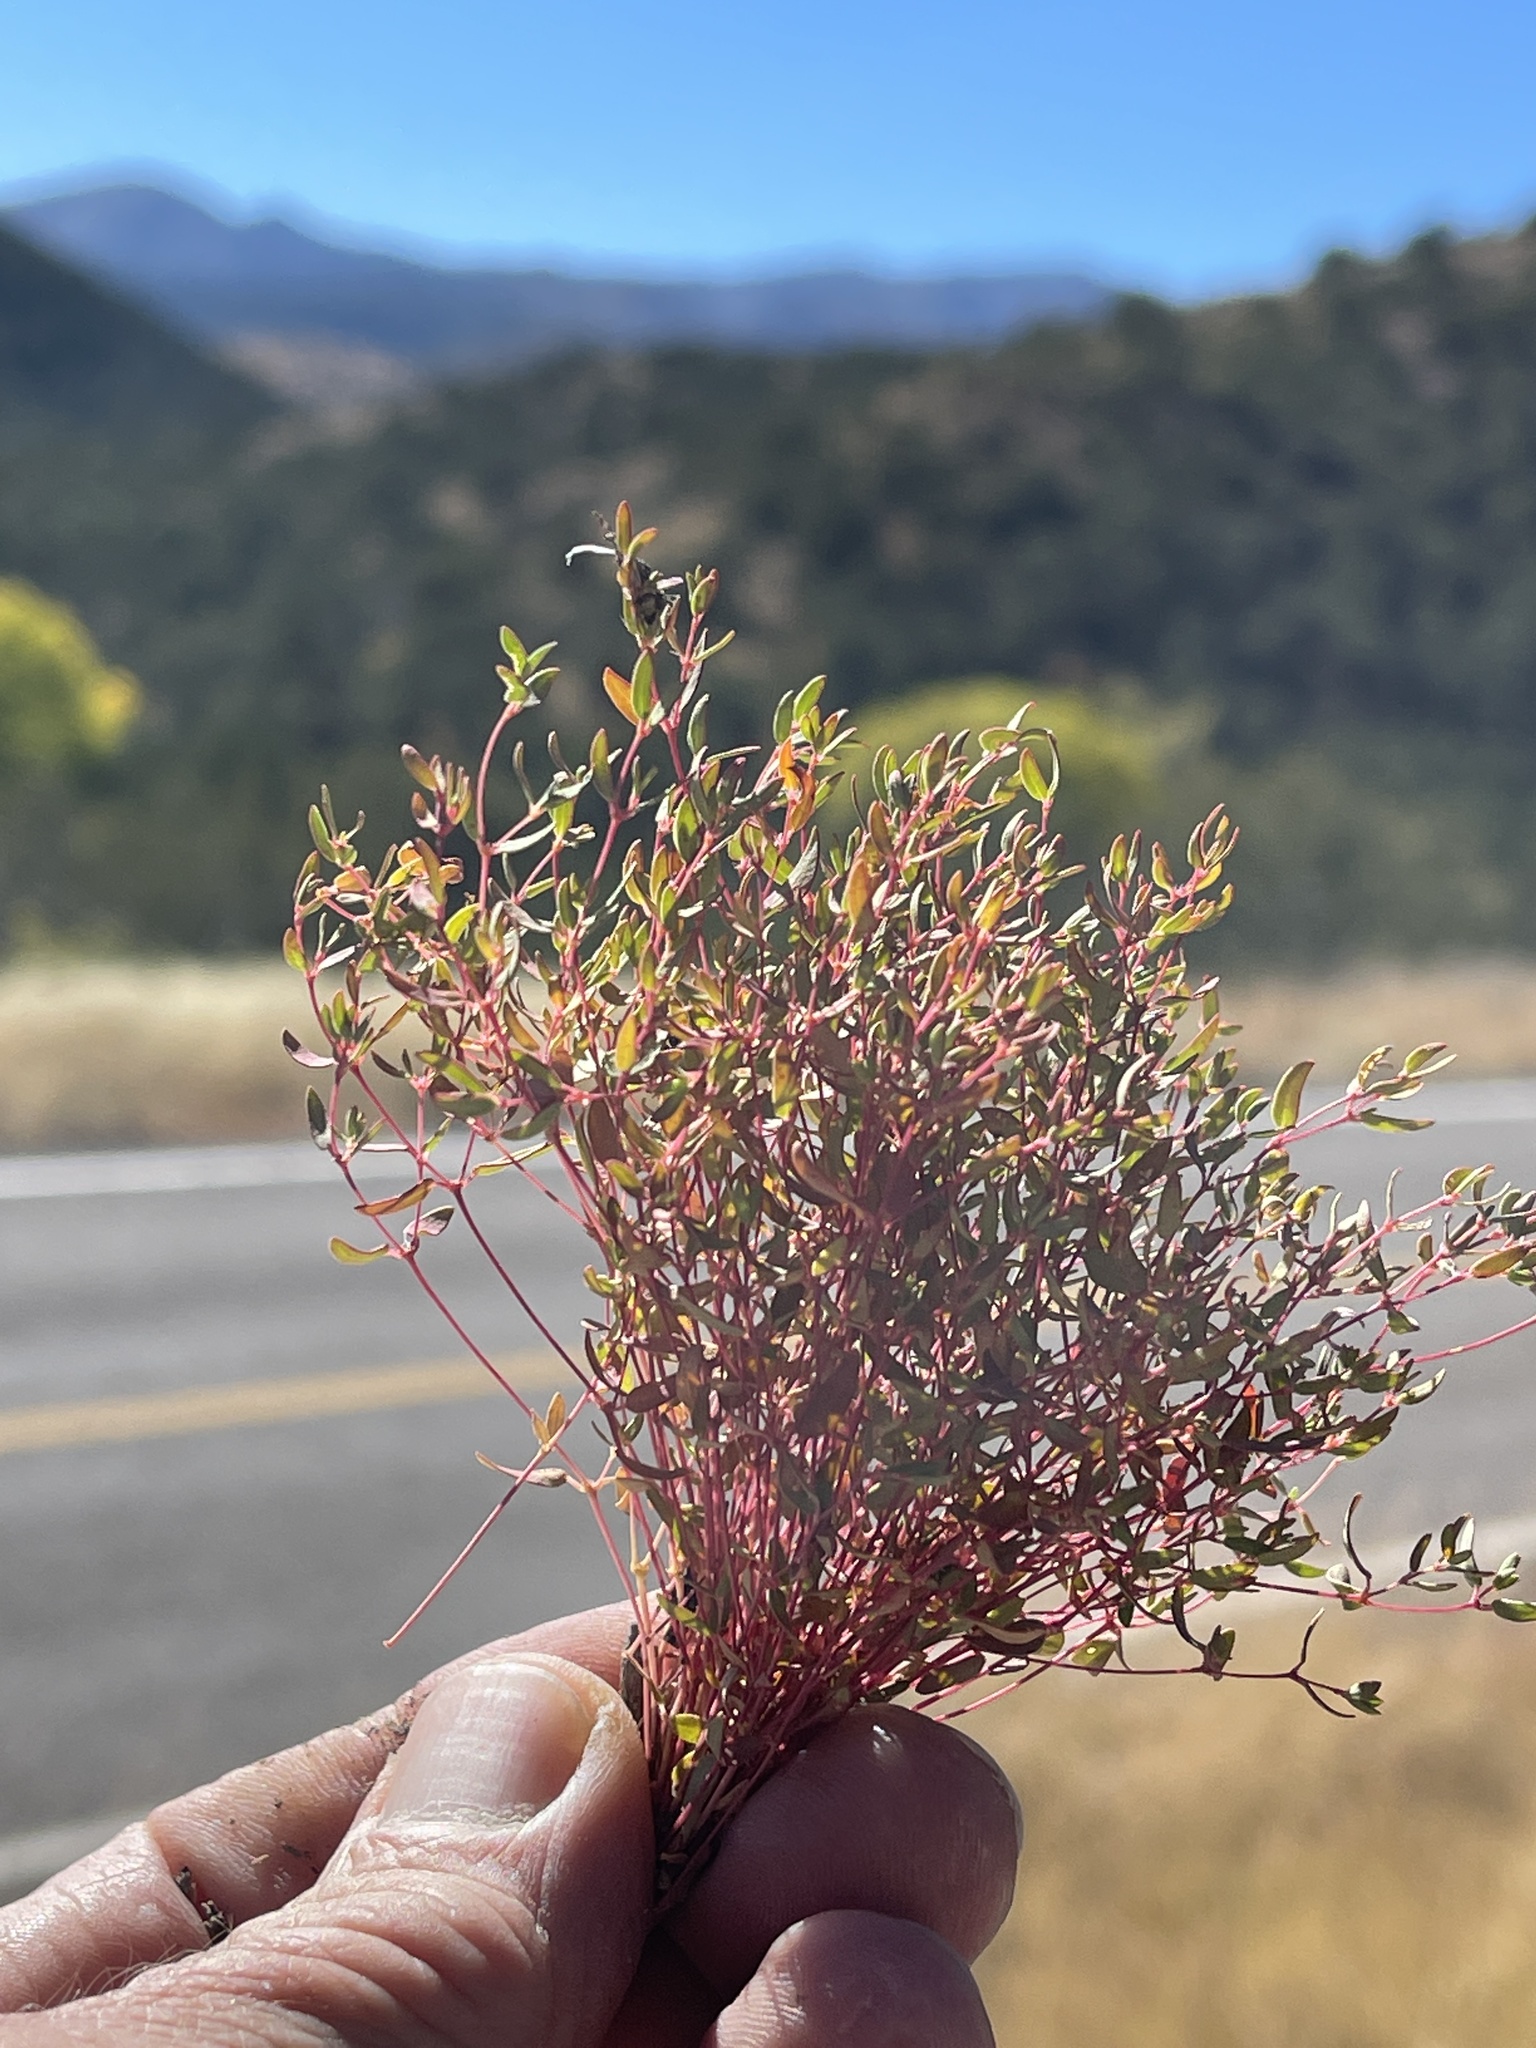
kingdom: Plantae
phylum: Tracheophyta
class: Magnoliopsida
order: Malpighiales
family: Euphorbiaceae
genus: Euphorbia
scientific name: Euphorbia chaetocalyx
